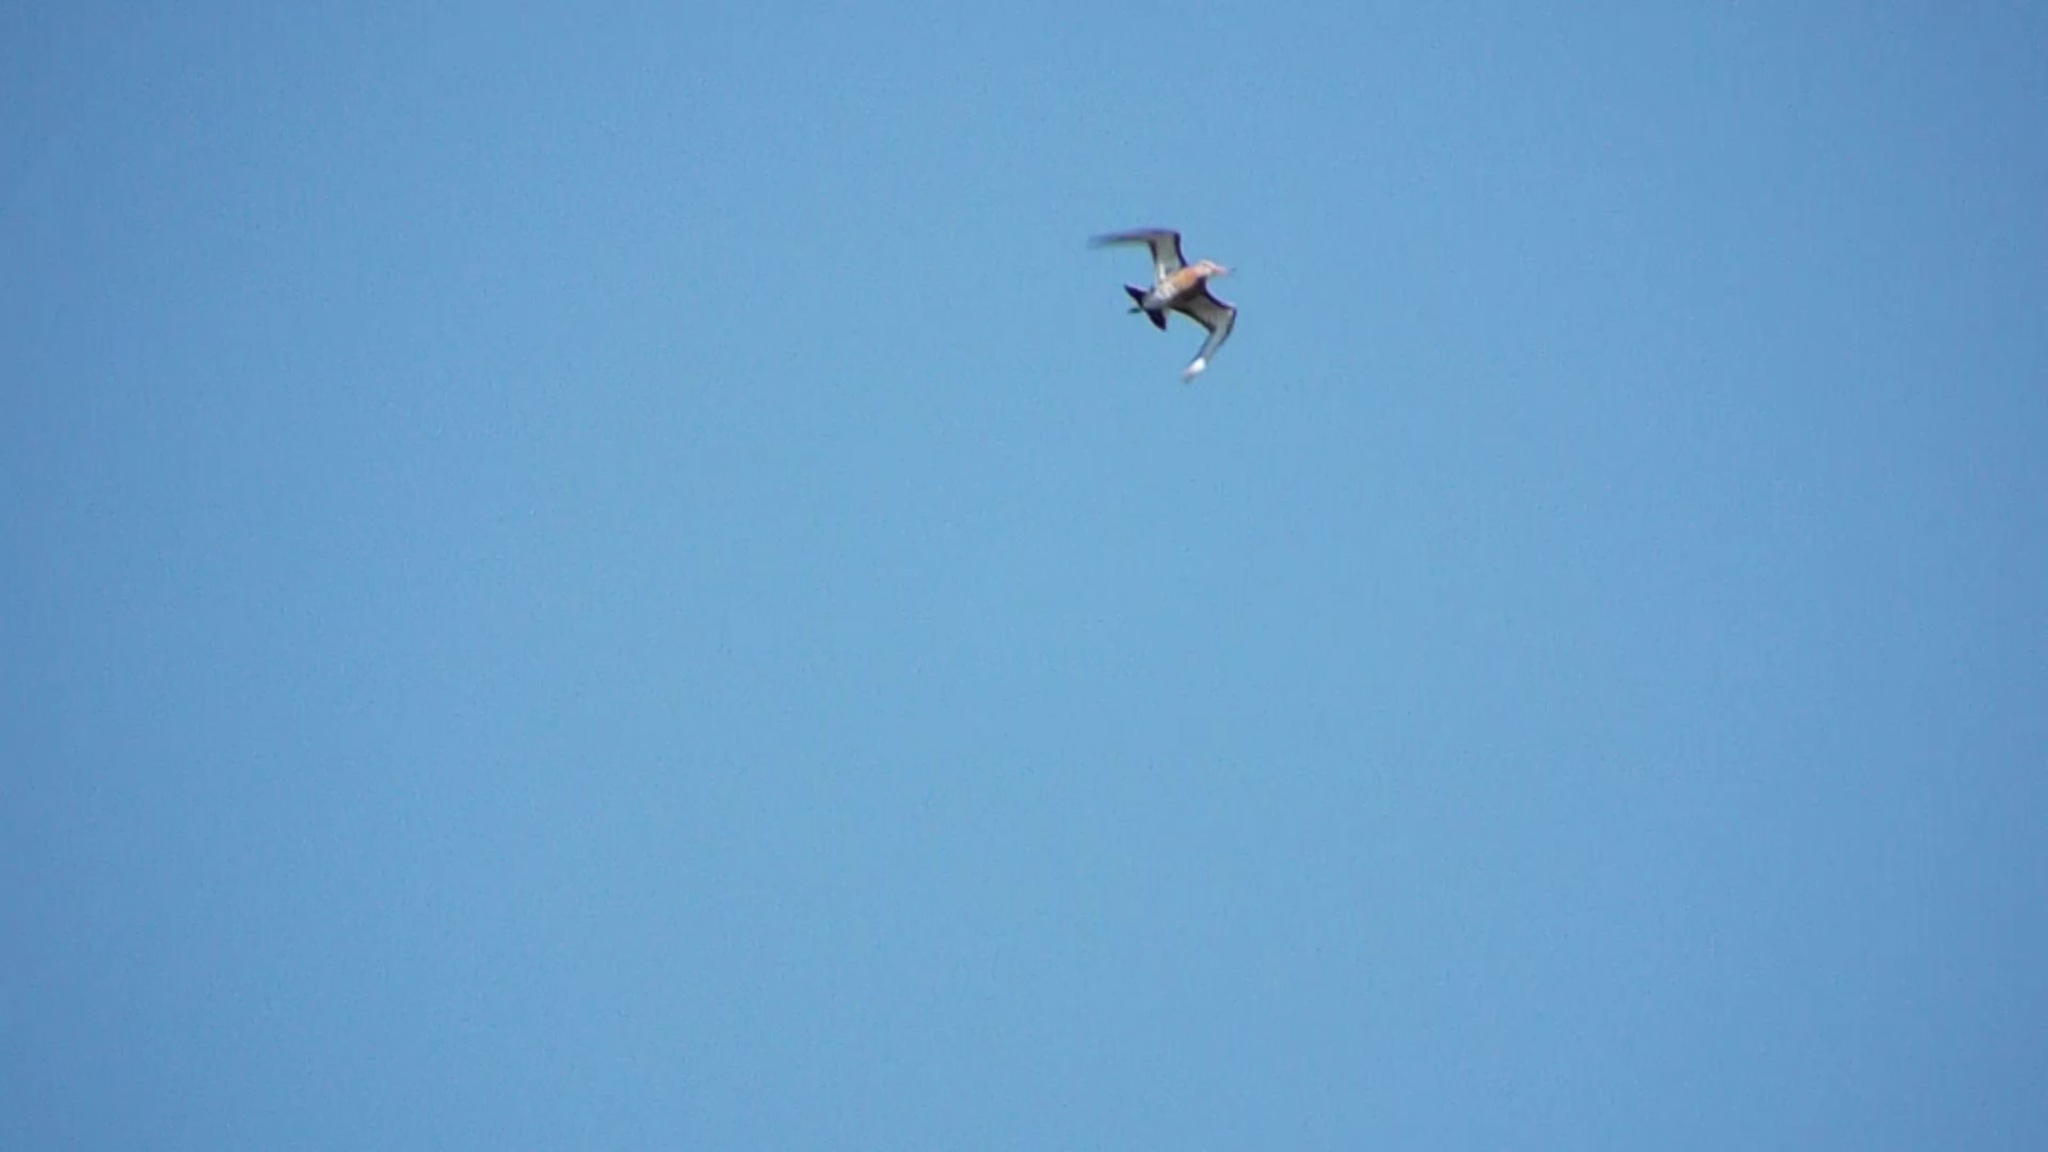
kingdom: Animalia
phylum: Chordata
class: Aves
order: Charadriiformes
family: Scolopacidae
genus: Limosa
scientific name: Limosa limosa
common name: Black-tailed godwit
